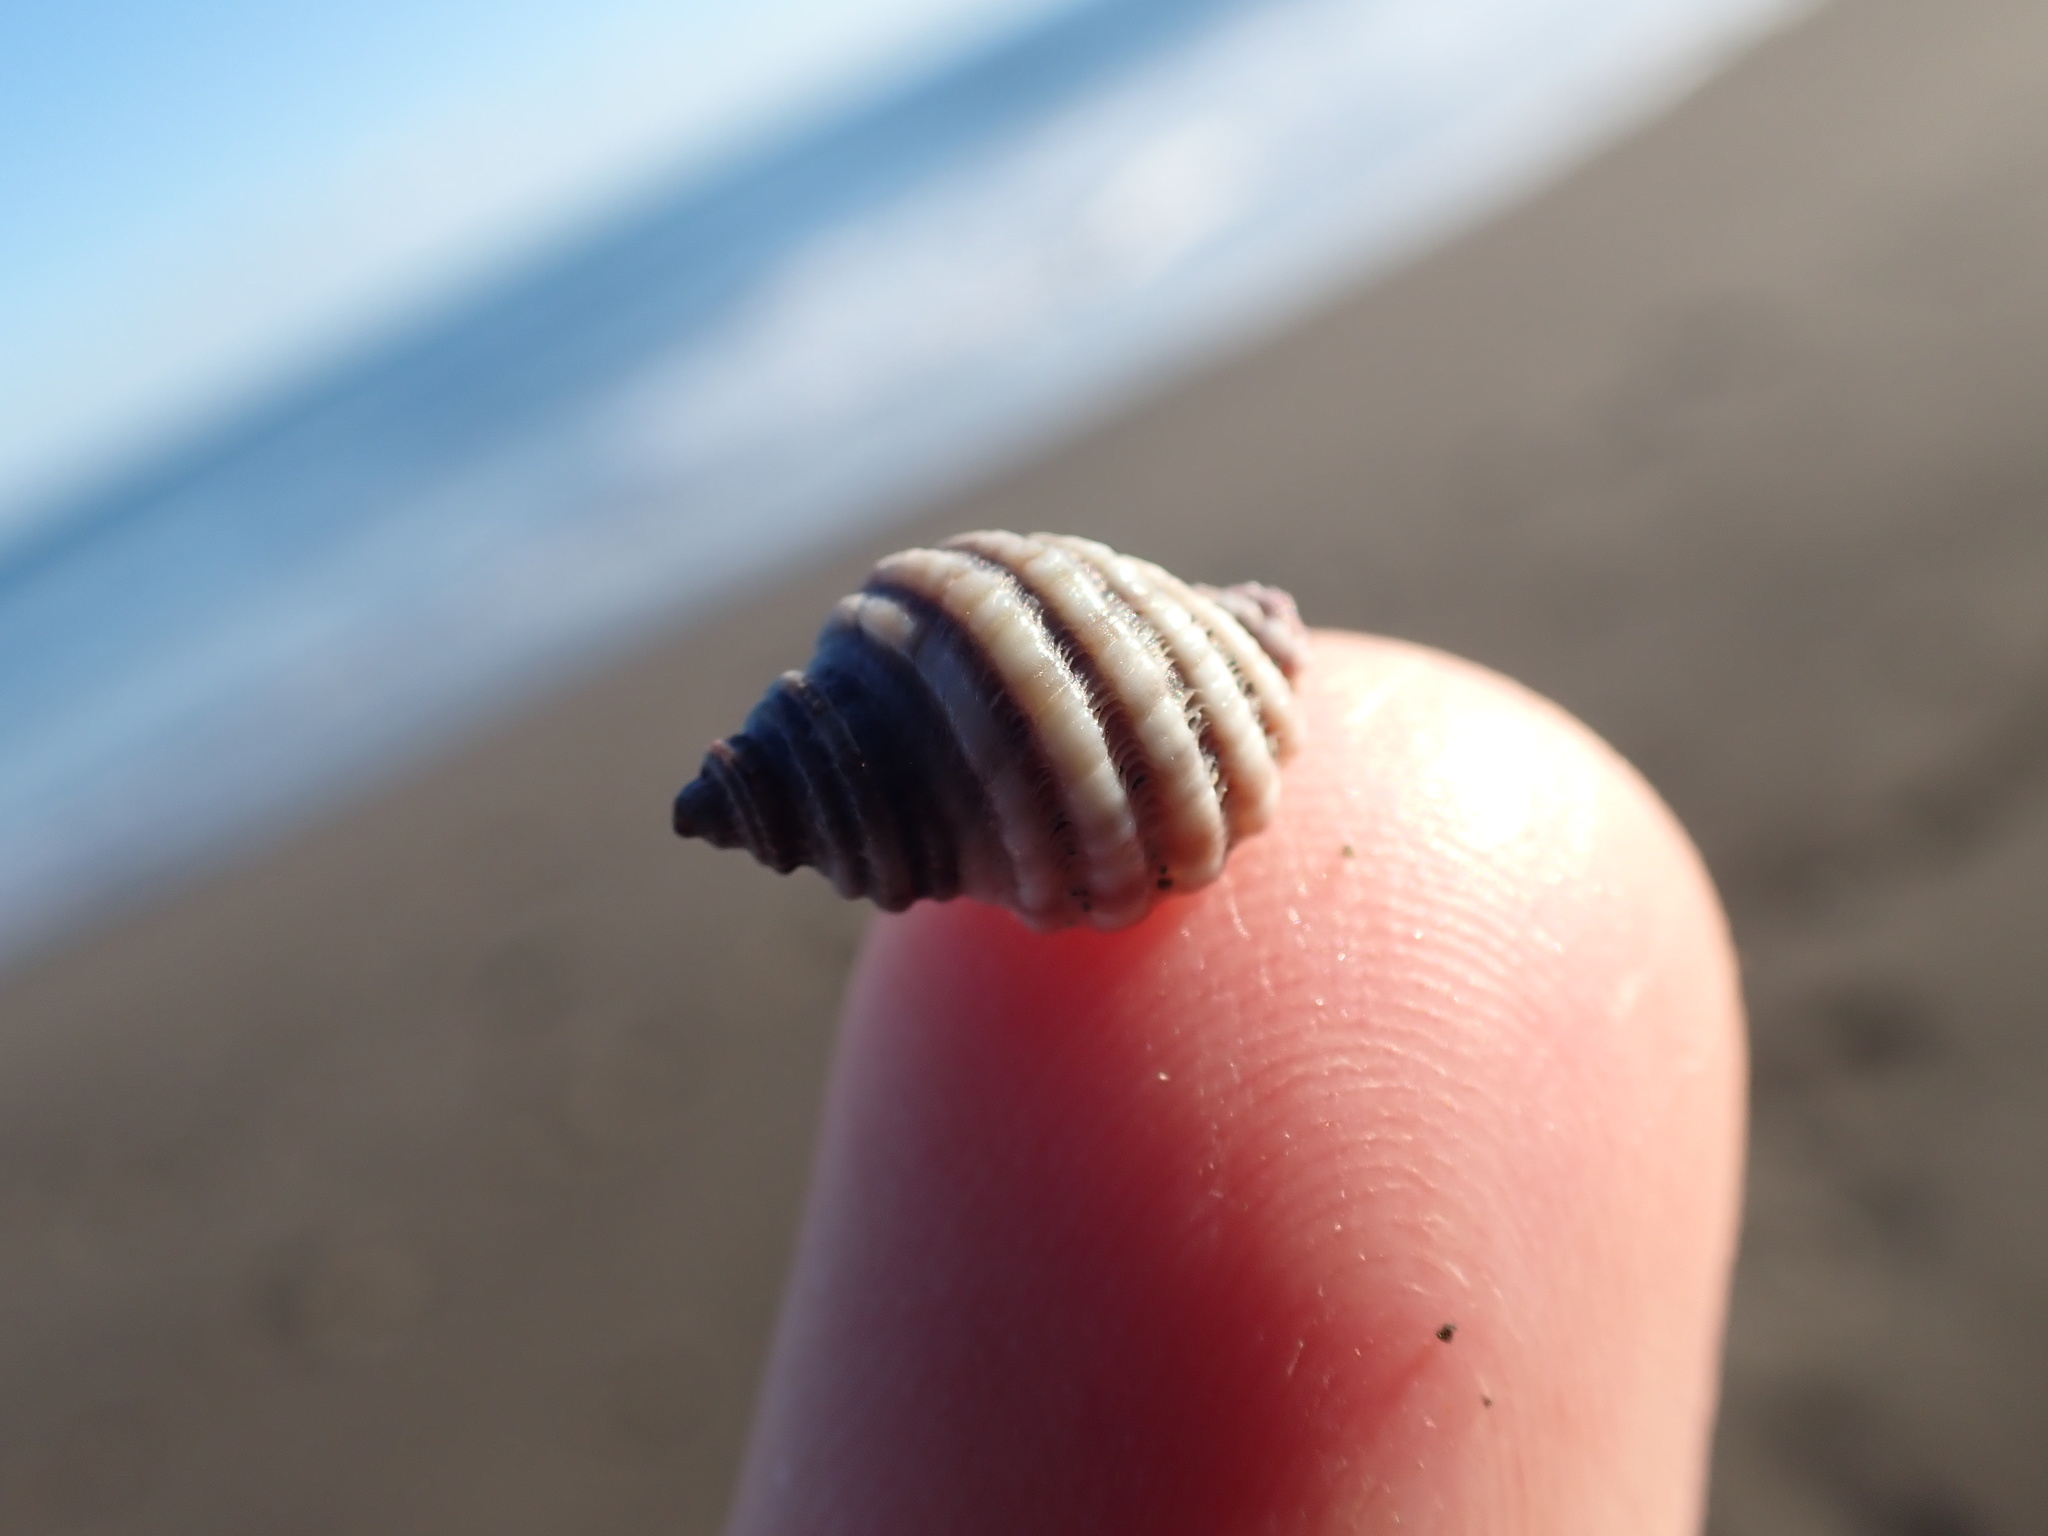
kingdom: Animalia
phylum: Mollusca
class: Gastropoda
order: Neogastropoda
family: Muricidae
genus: Paratrophon
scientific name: Paratrophon cheesemani
